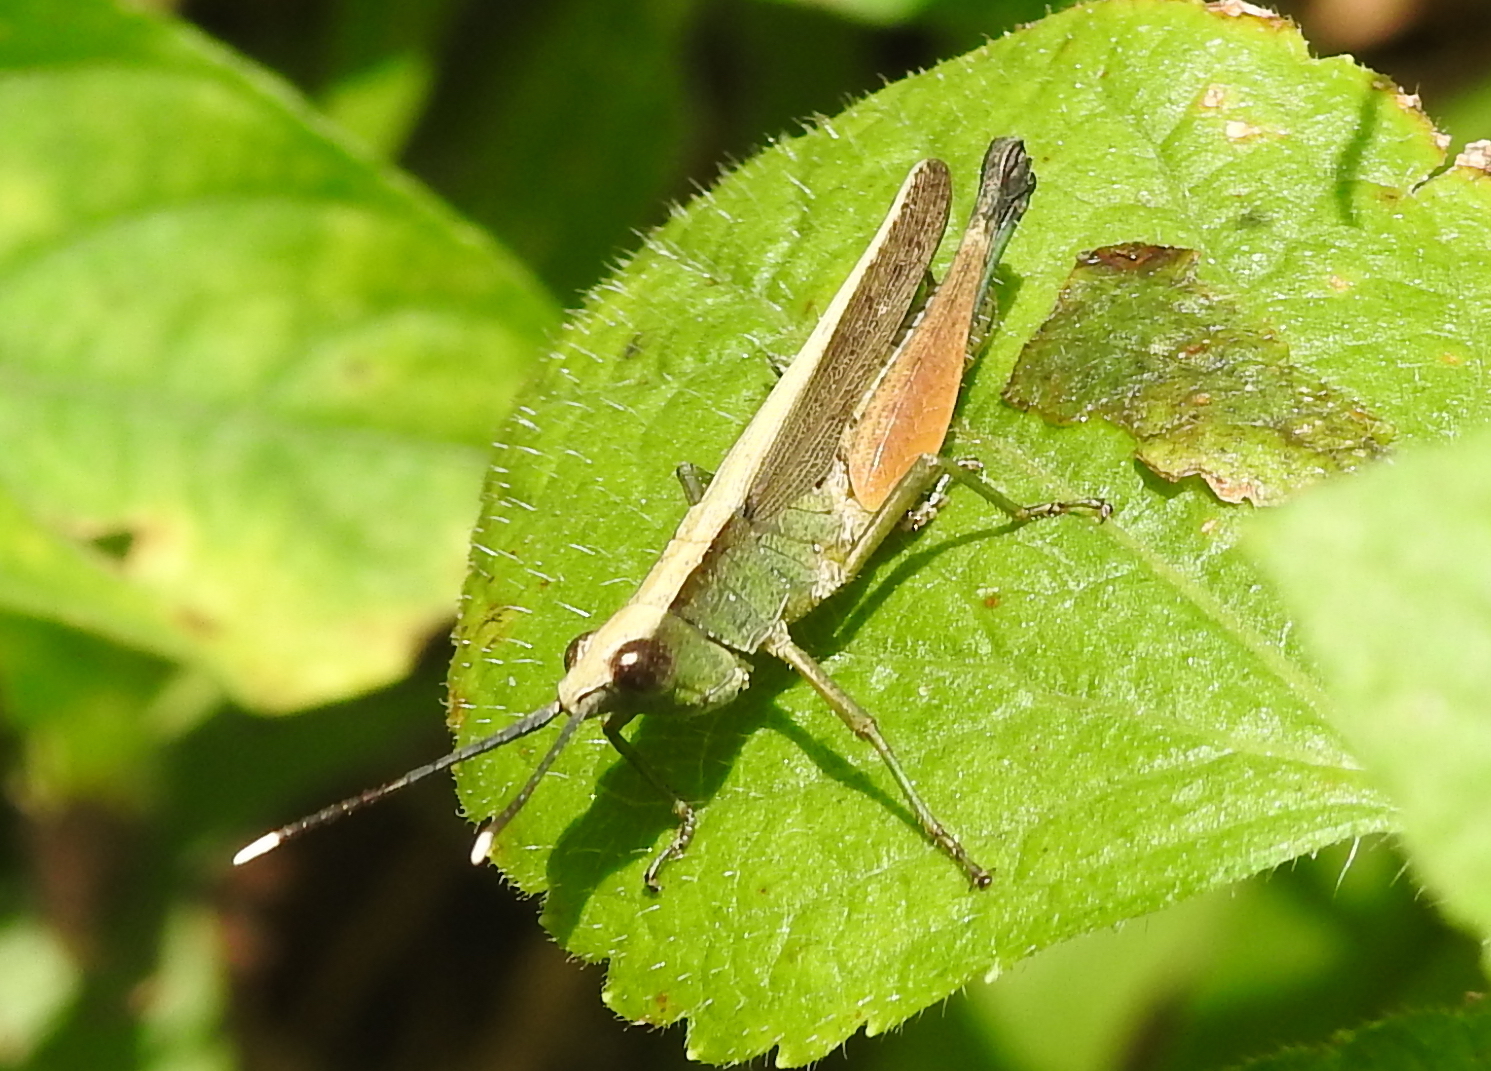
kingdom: Animalia
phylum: Arthropoda
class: Insecta
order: Orthoptera
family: Acrididae
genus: Phlaeoba
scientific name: Phlaeoba antennata
